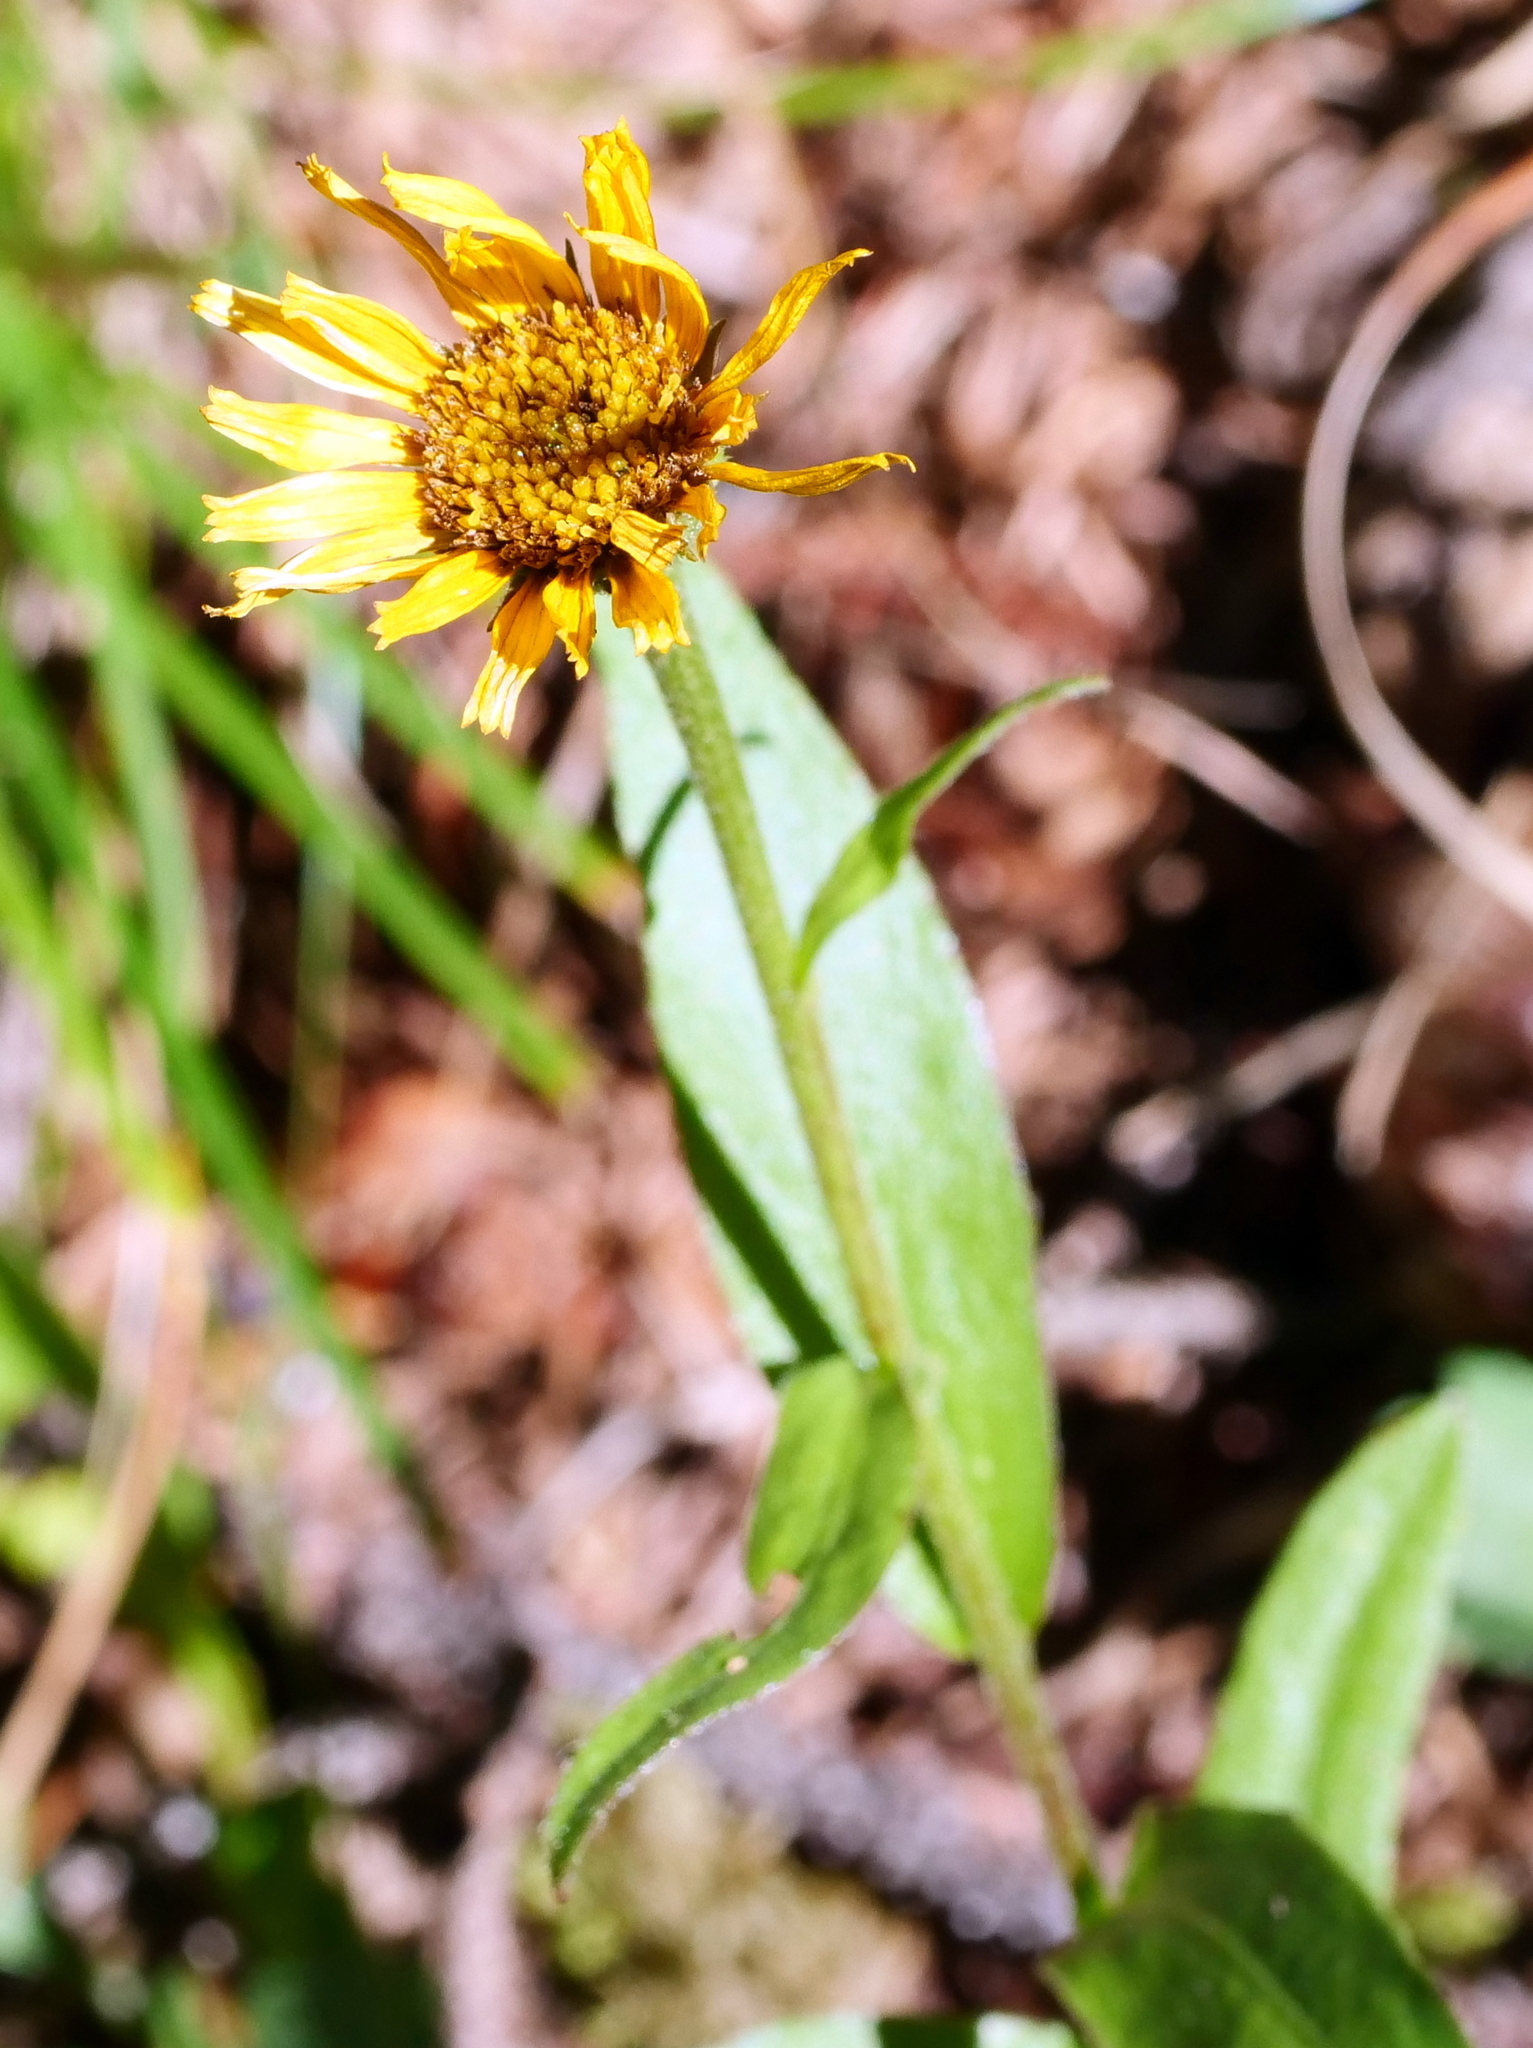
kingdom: Plantae
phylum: Tracheophyta
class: Magnoliopsida
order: Asterales
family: Asteraceae
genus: Buphthalmum
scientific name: Buphthalmum salicifolium
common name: Willow-leaved yellow-oxeye
